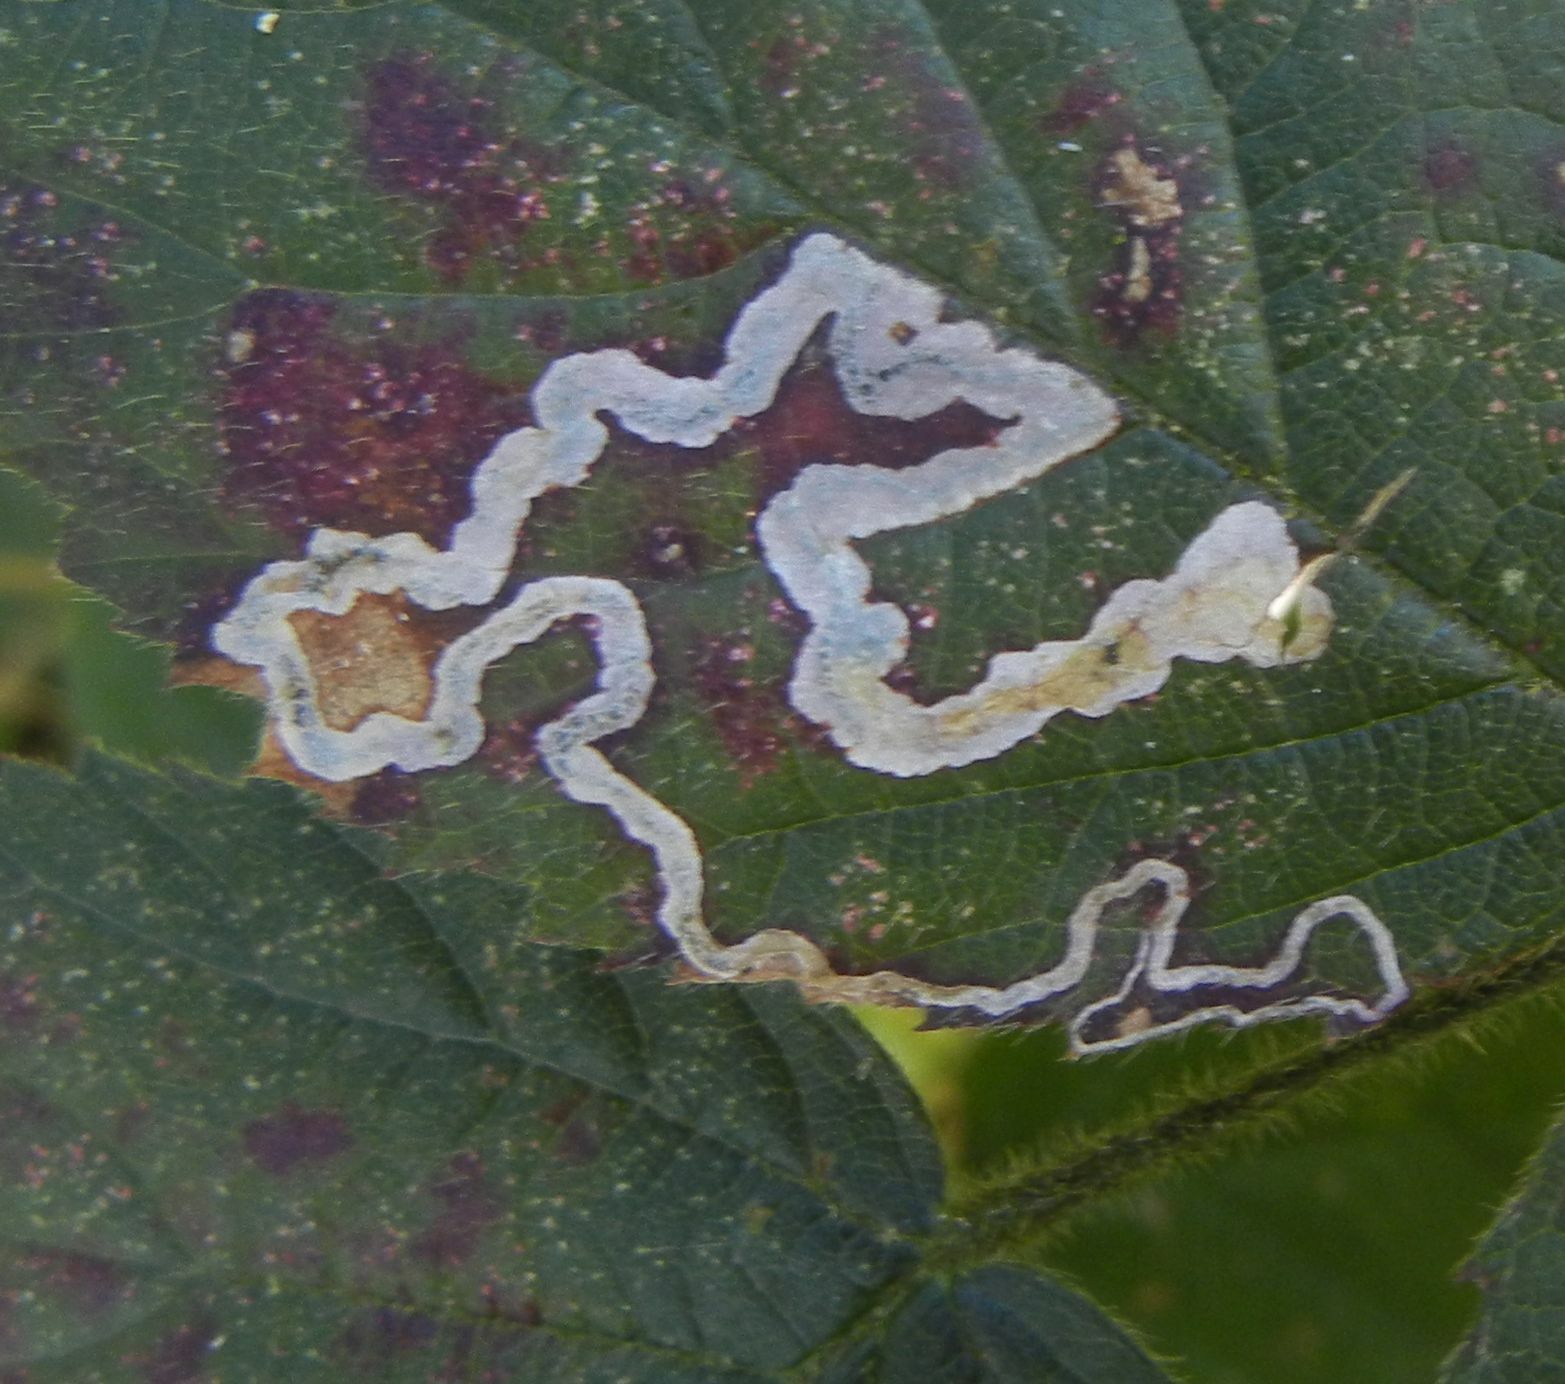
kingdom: Animalia
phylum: Arthropoda
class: Insecta
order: Lepidoptera
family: Nepticulidae
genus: Stigmella
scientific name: Stigmella aurella
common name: Golden pigmy
